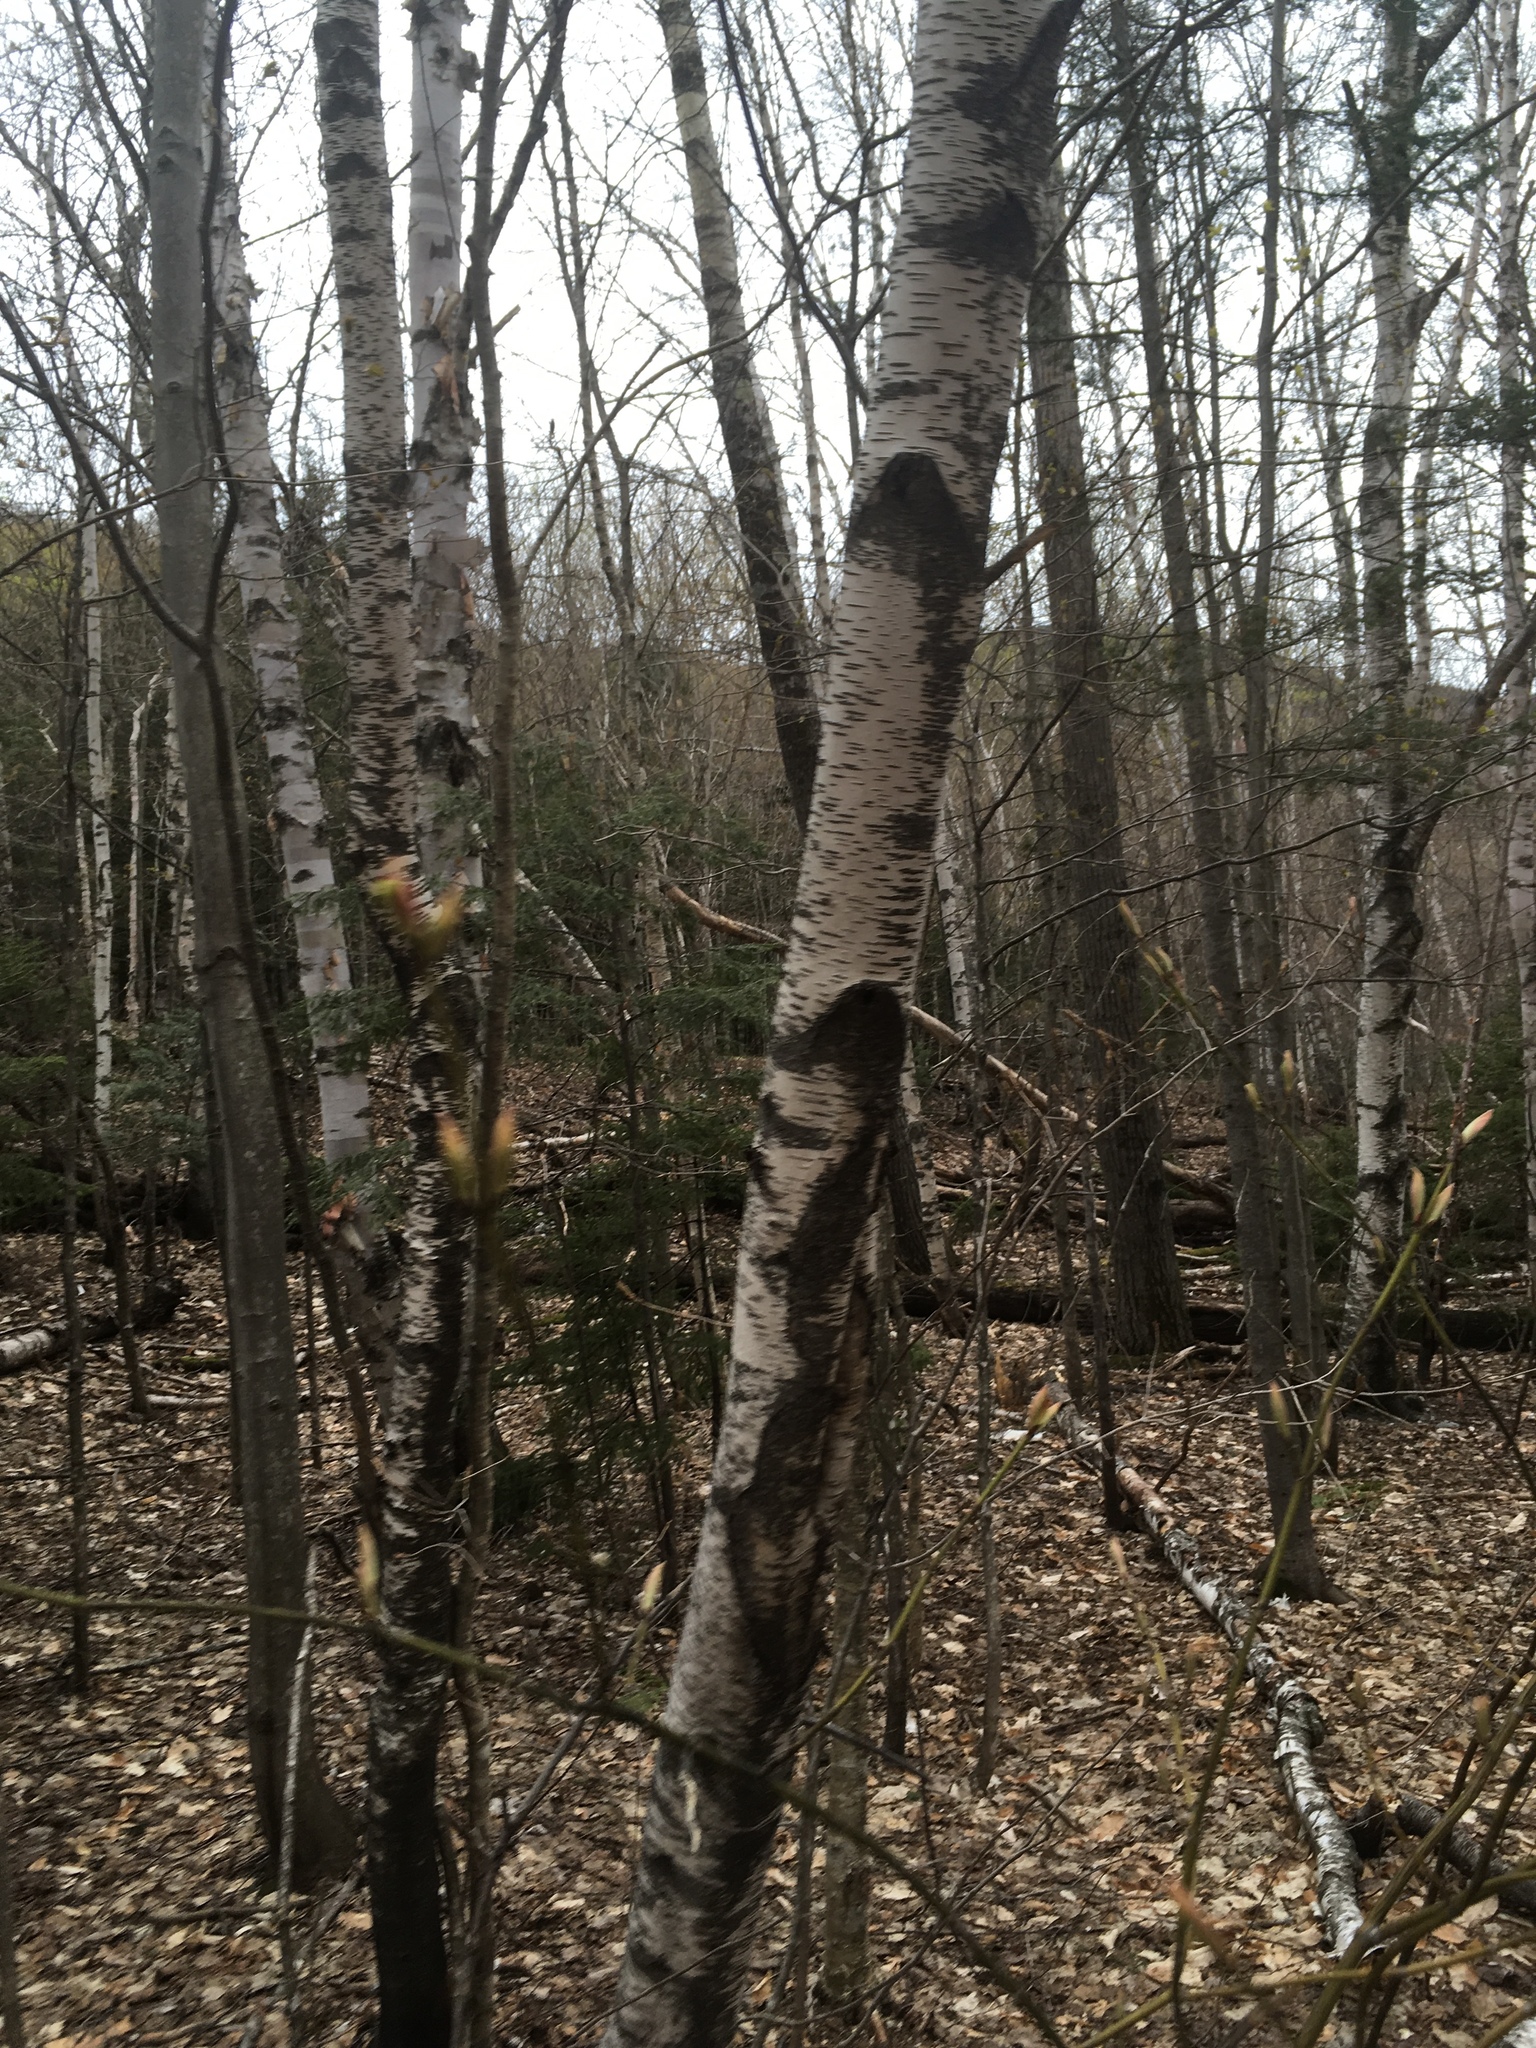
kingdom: Plantae
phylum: Tracheophyta
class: Magnoliopsida
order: Fagales
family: Betulaceae
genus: Betula
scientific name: Betula populifolia
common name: Fire birch
